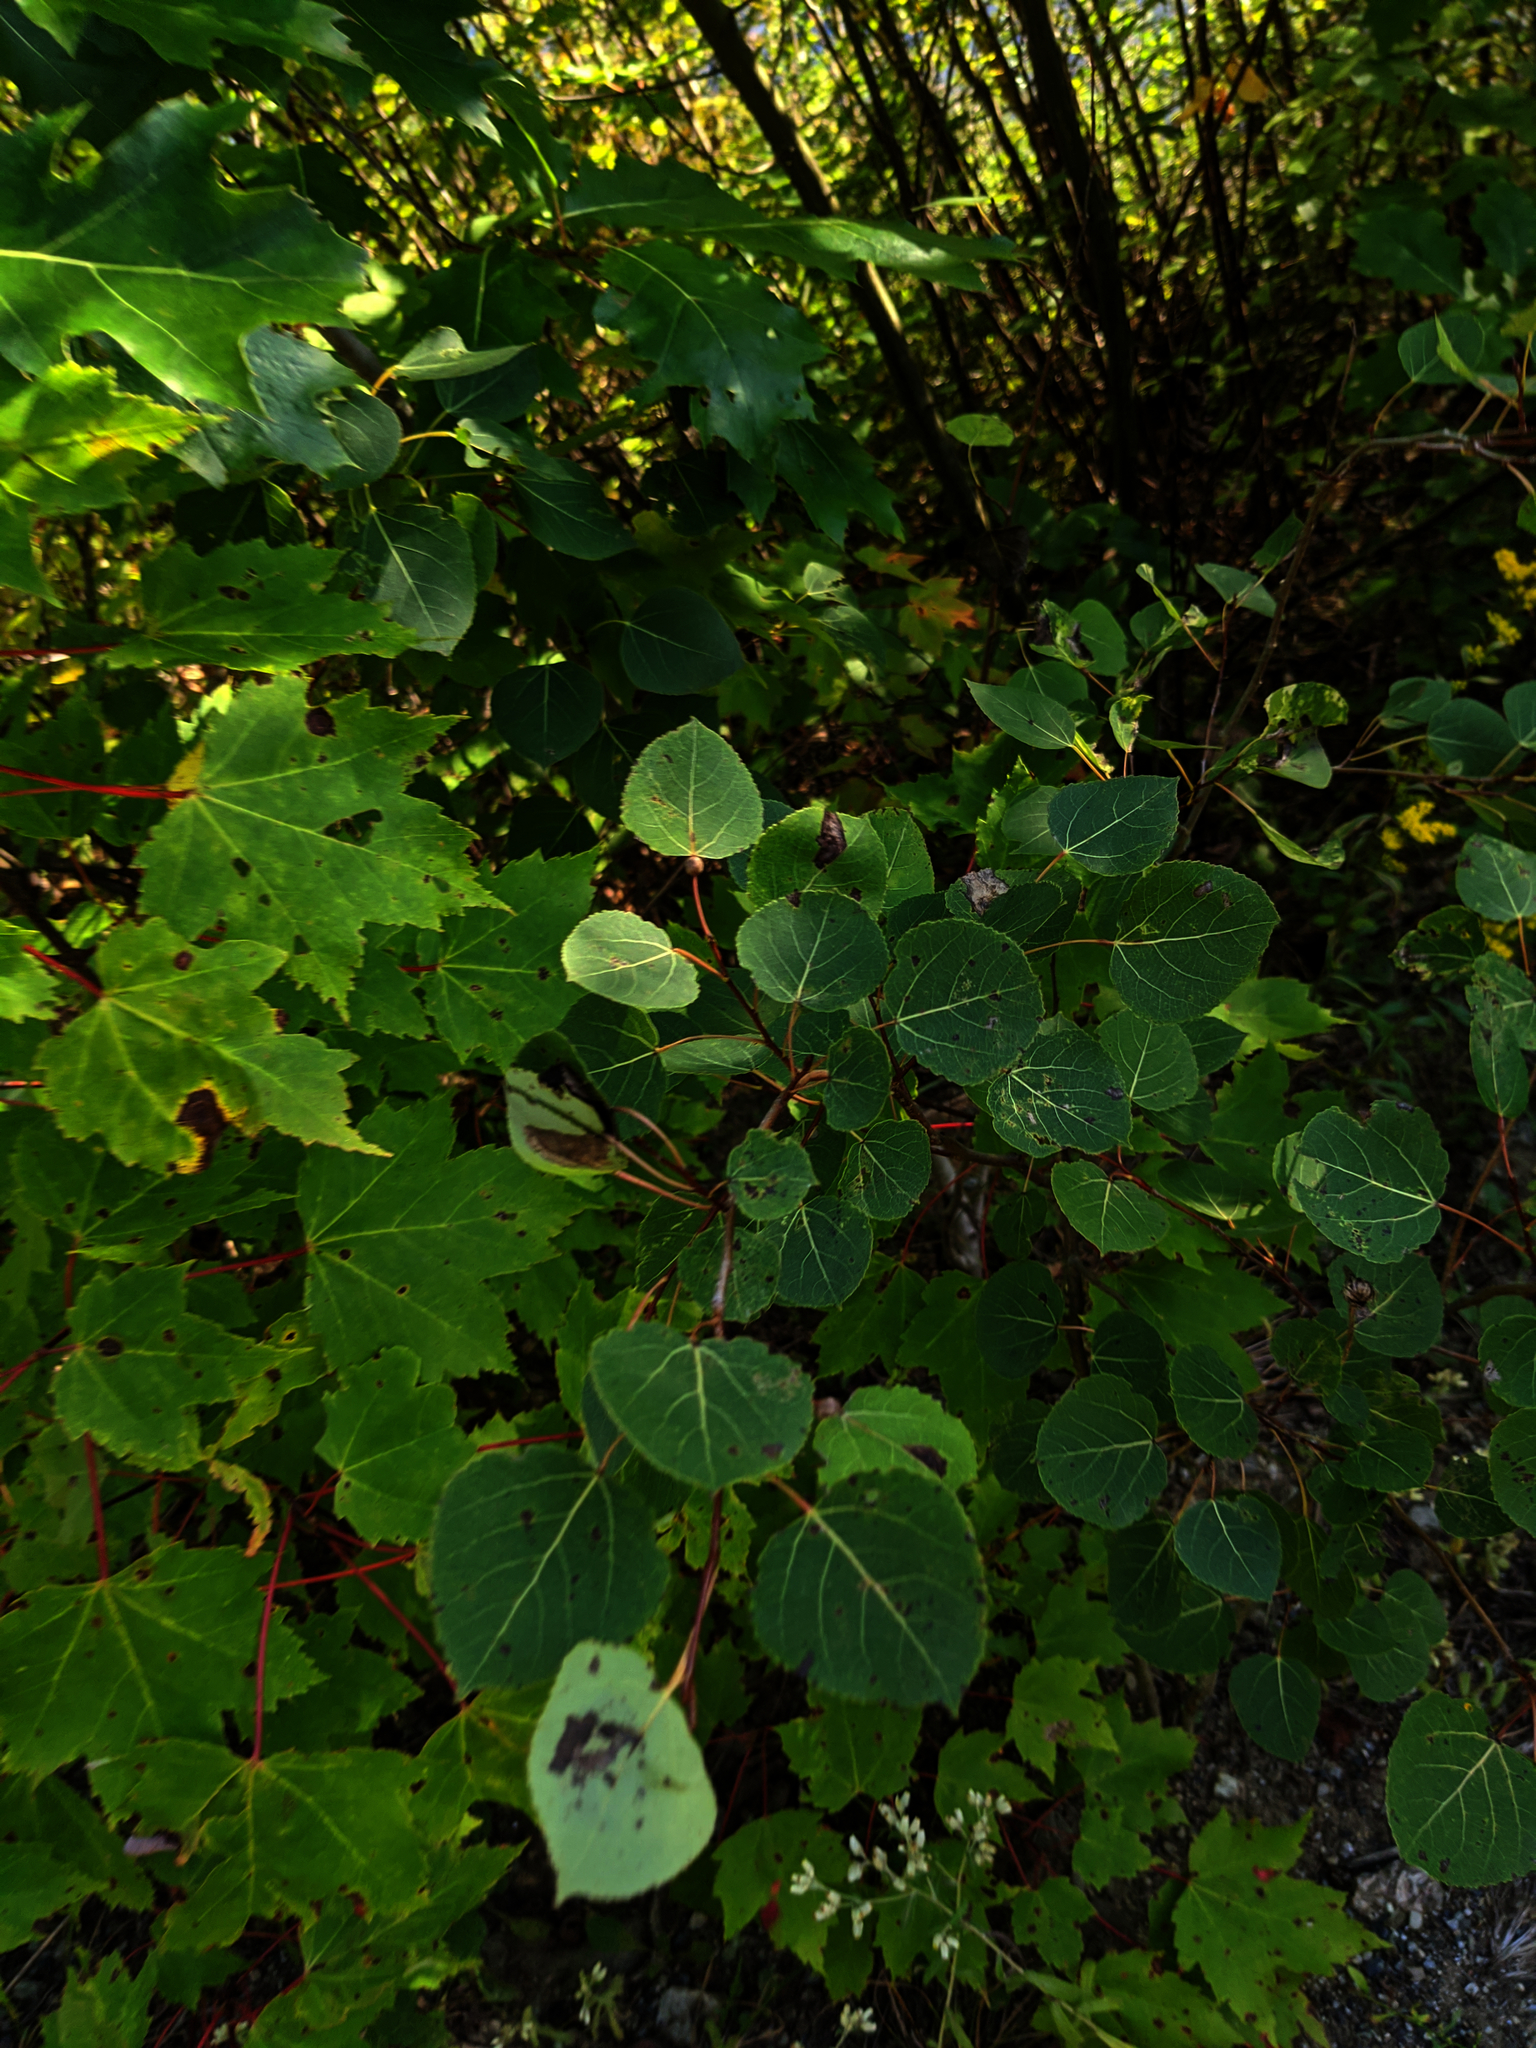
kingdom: Plantae
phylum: Tracheophyta
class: Magnoliopsida
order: Malpighiales
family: Salicaceae
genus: Populus
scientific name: Populus tremuloides
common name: Quaking aspen
